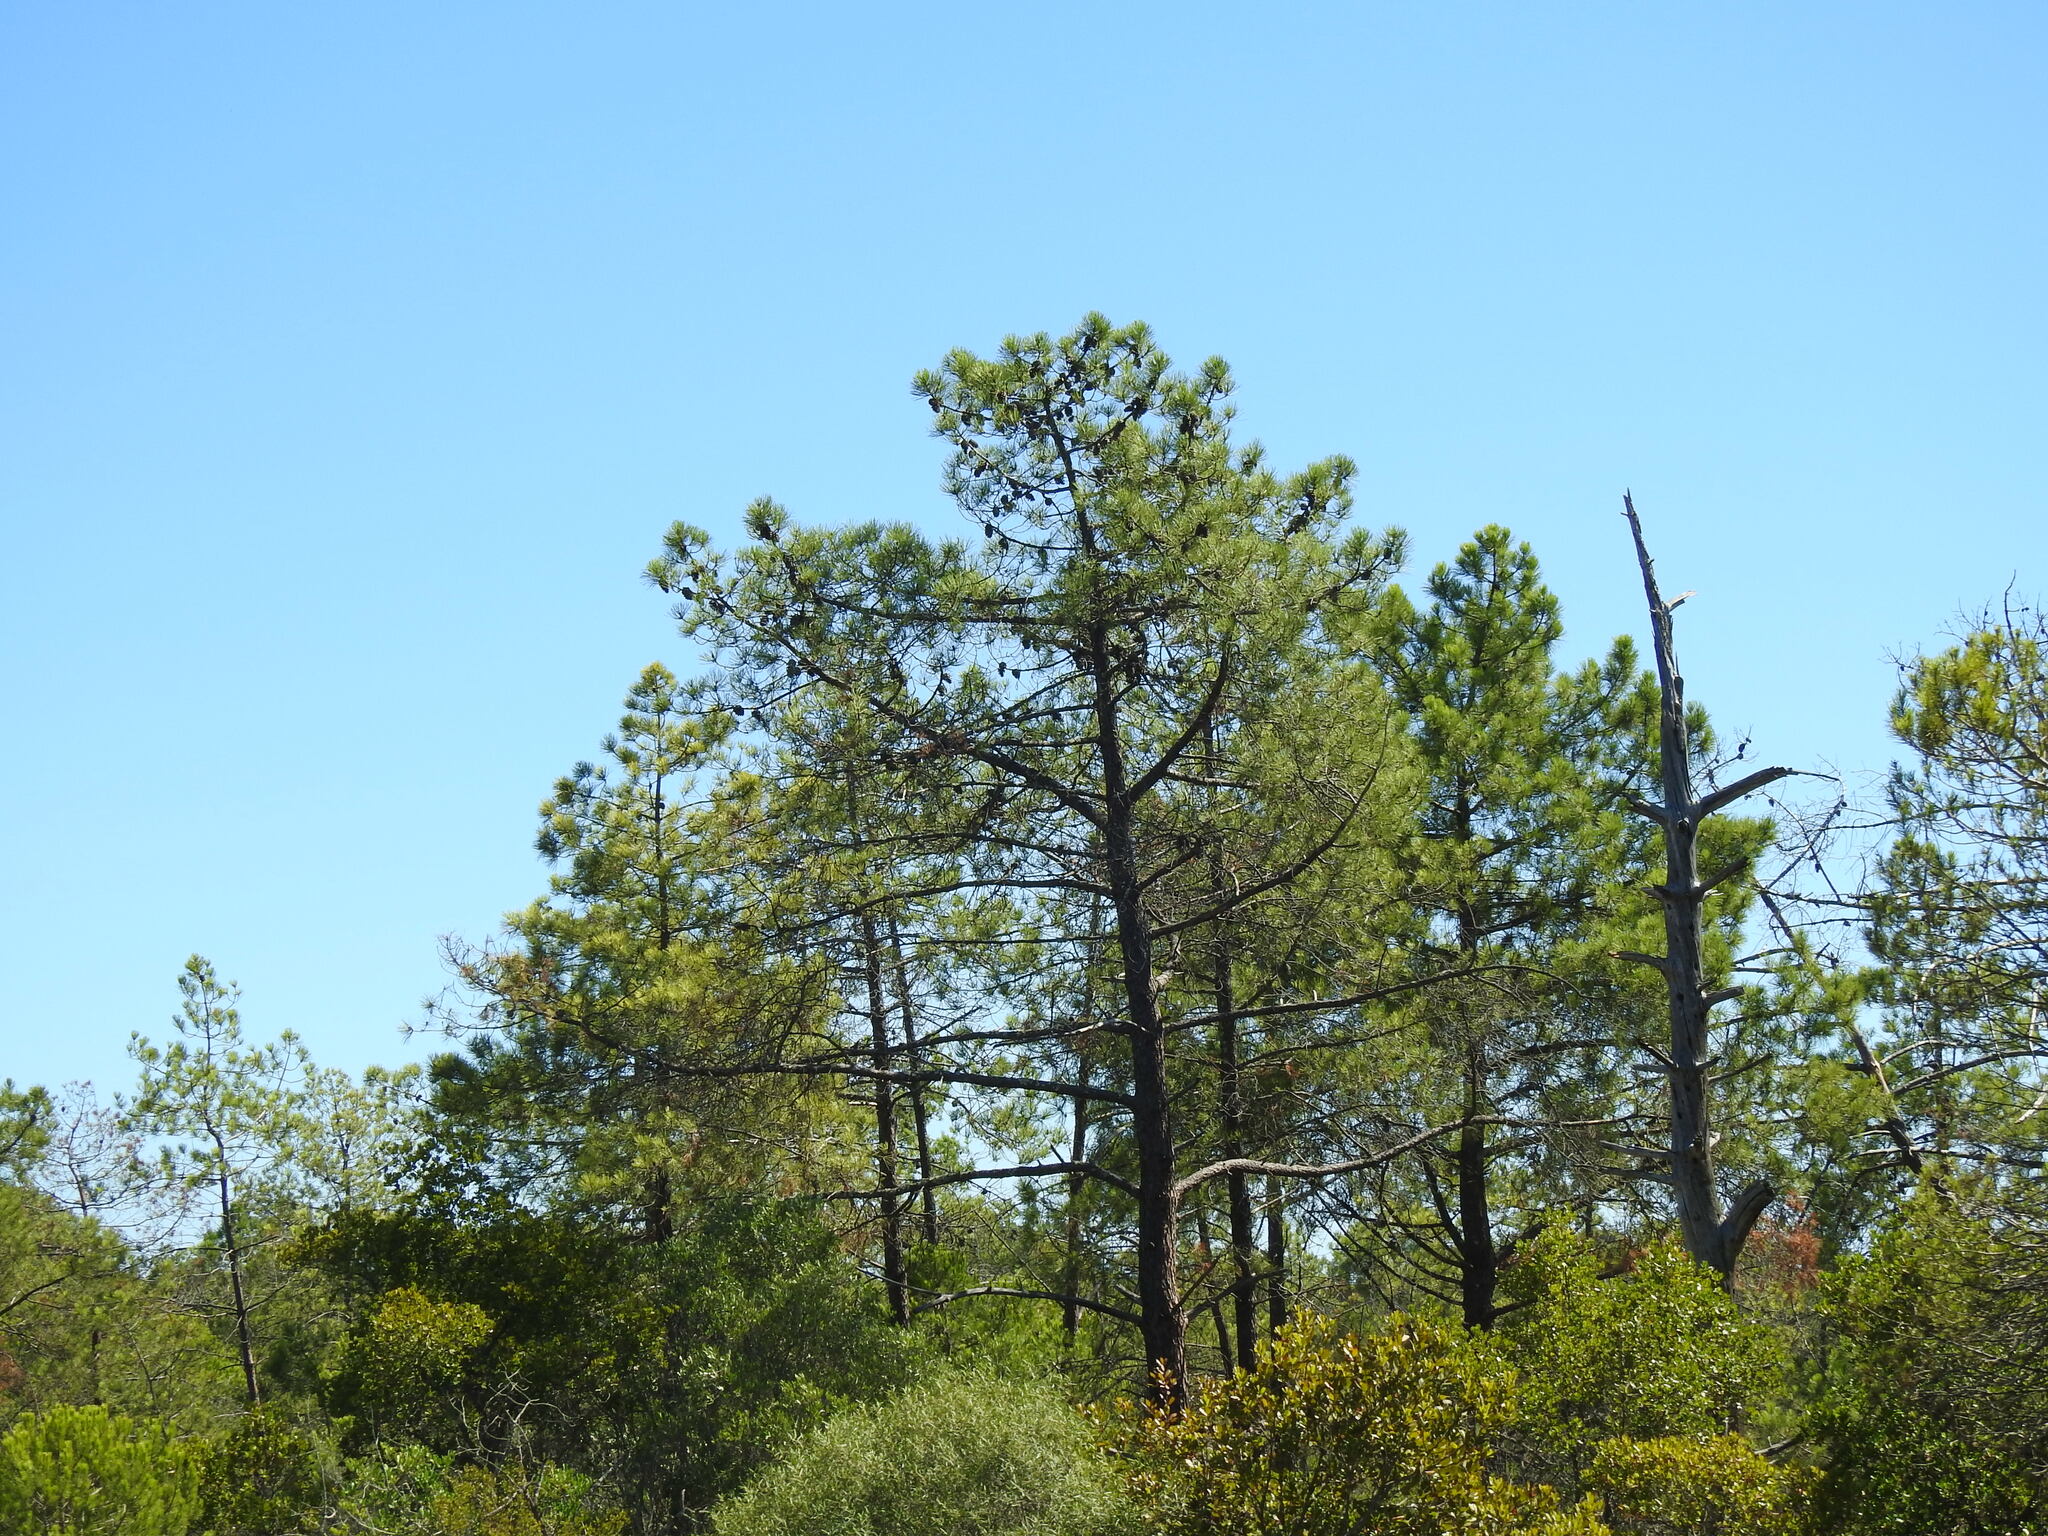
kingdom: Plantae
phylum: Tracheophyta
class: Pinopsida
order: Pinales
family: Pinaceae
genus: Pinus
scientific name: Pinus pinaster
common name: Maritime pine
